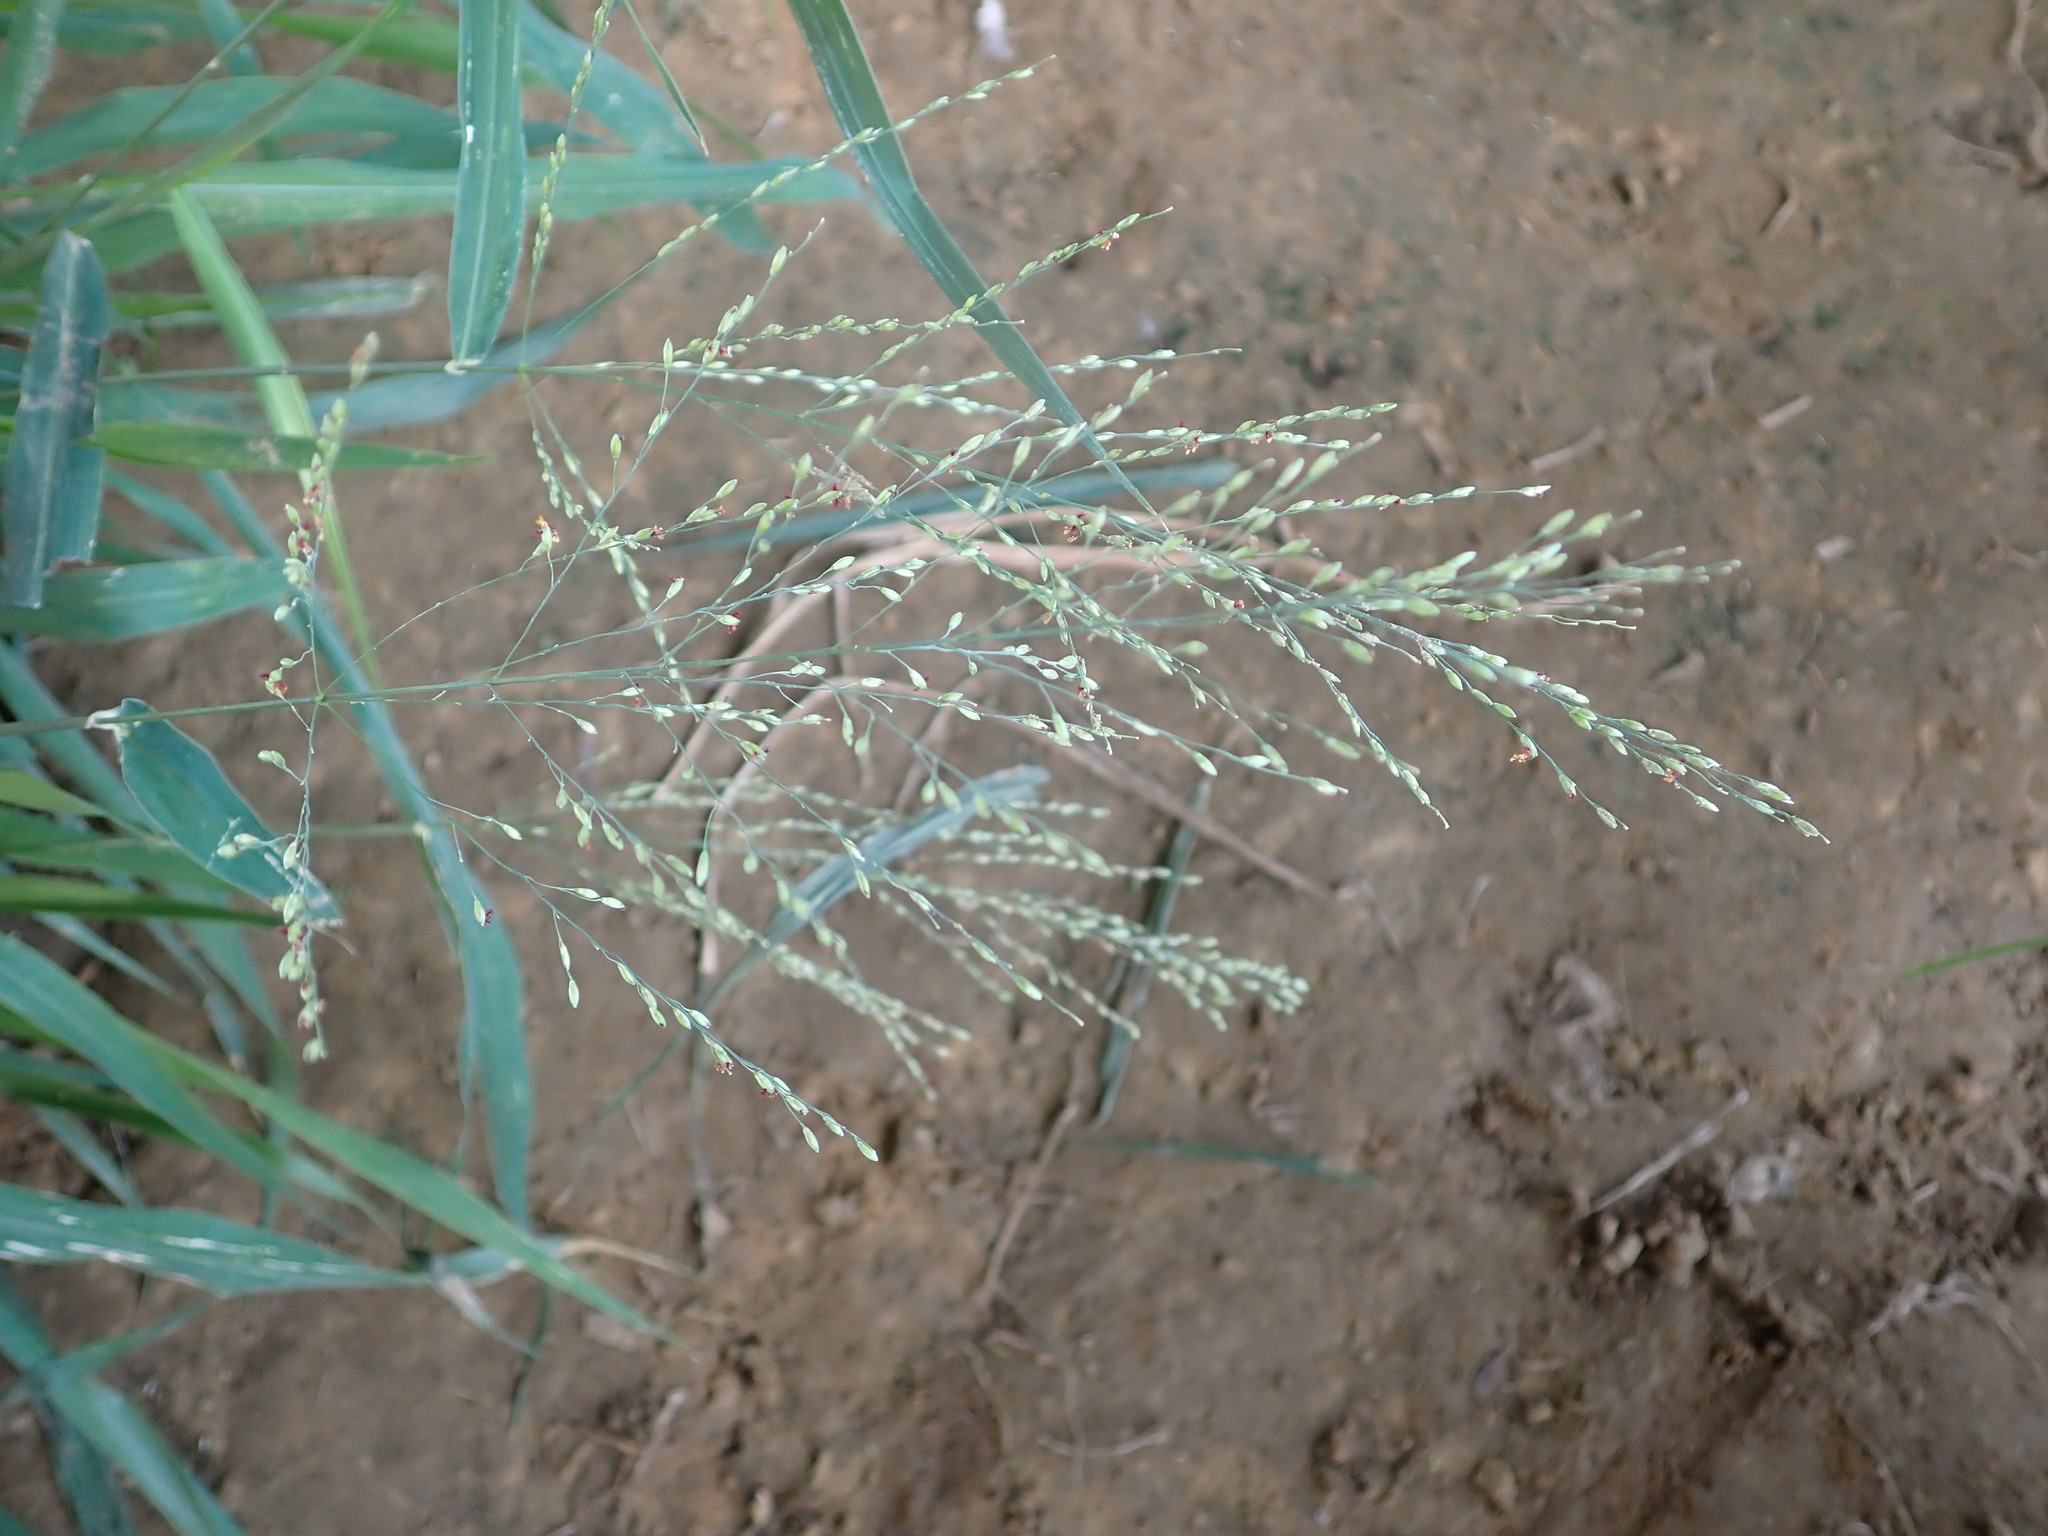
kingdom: Plantae
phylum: Tracheophyta
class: Liliopsida
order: Poales
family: Poaceae
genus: Megathyrsus
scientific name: Megathyrsus maximus
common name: Guineagrass
